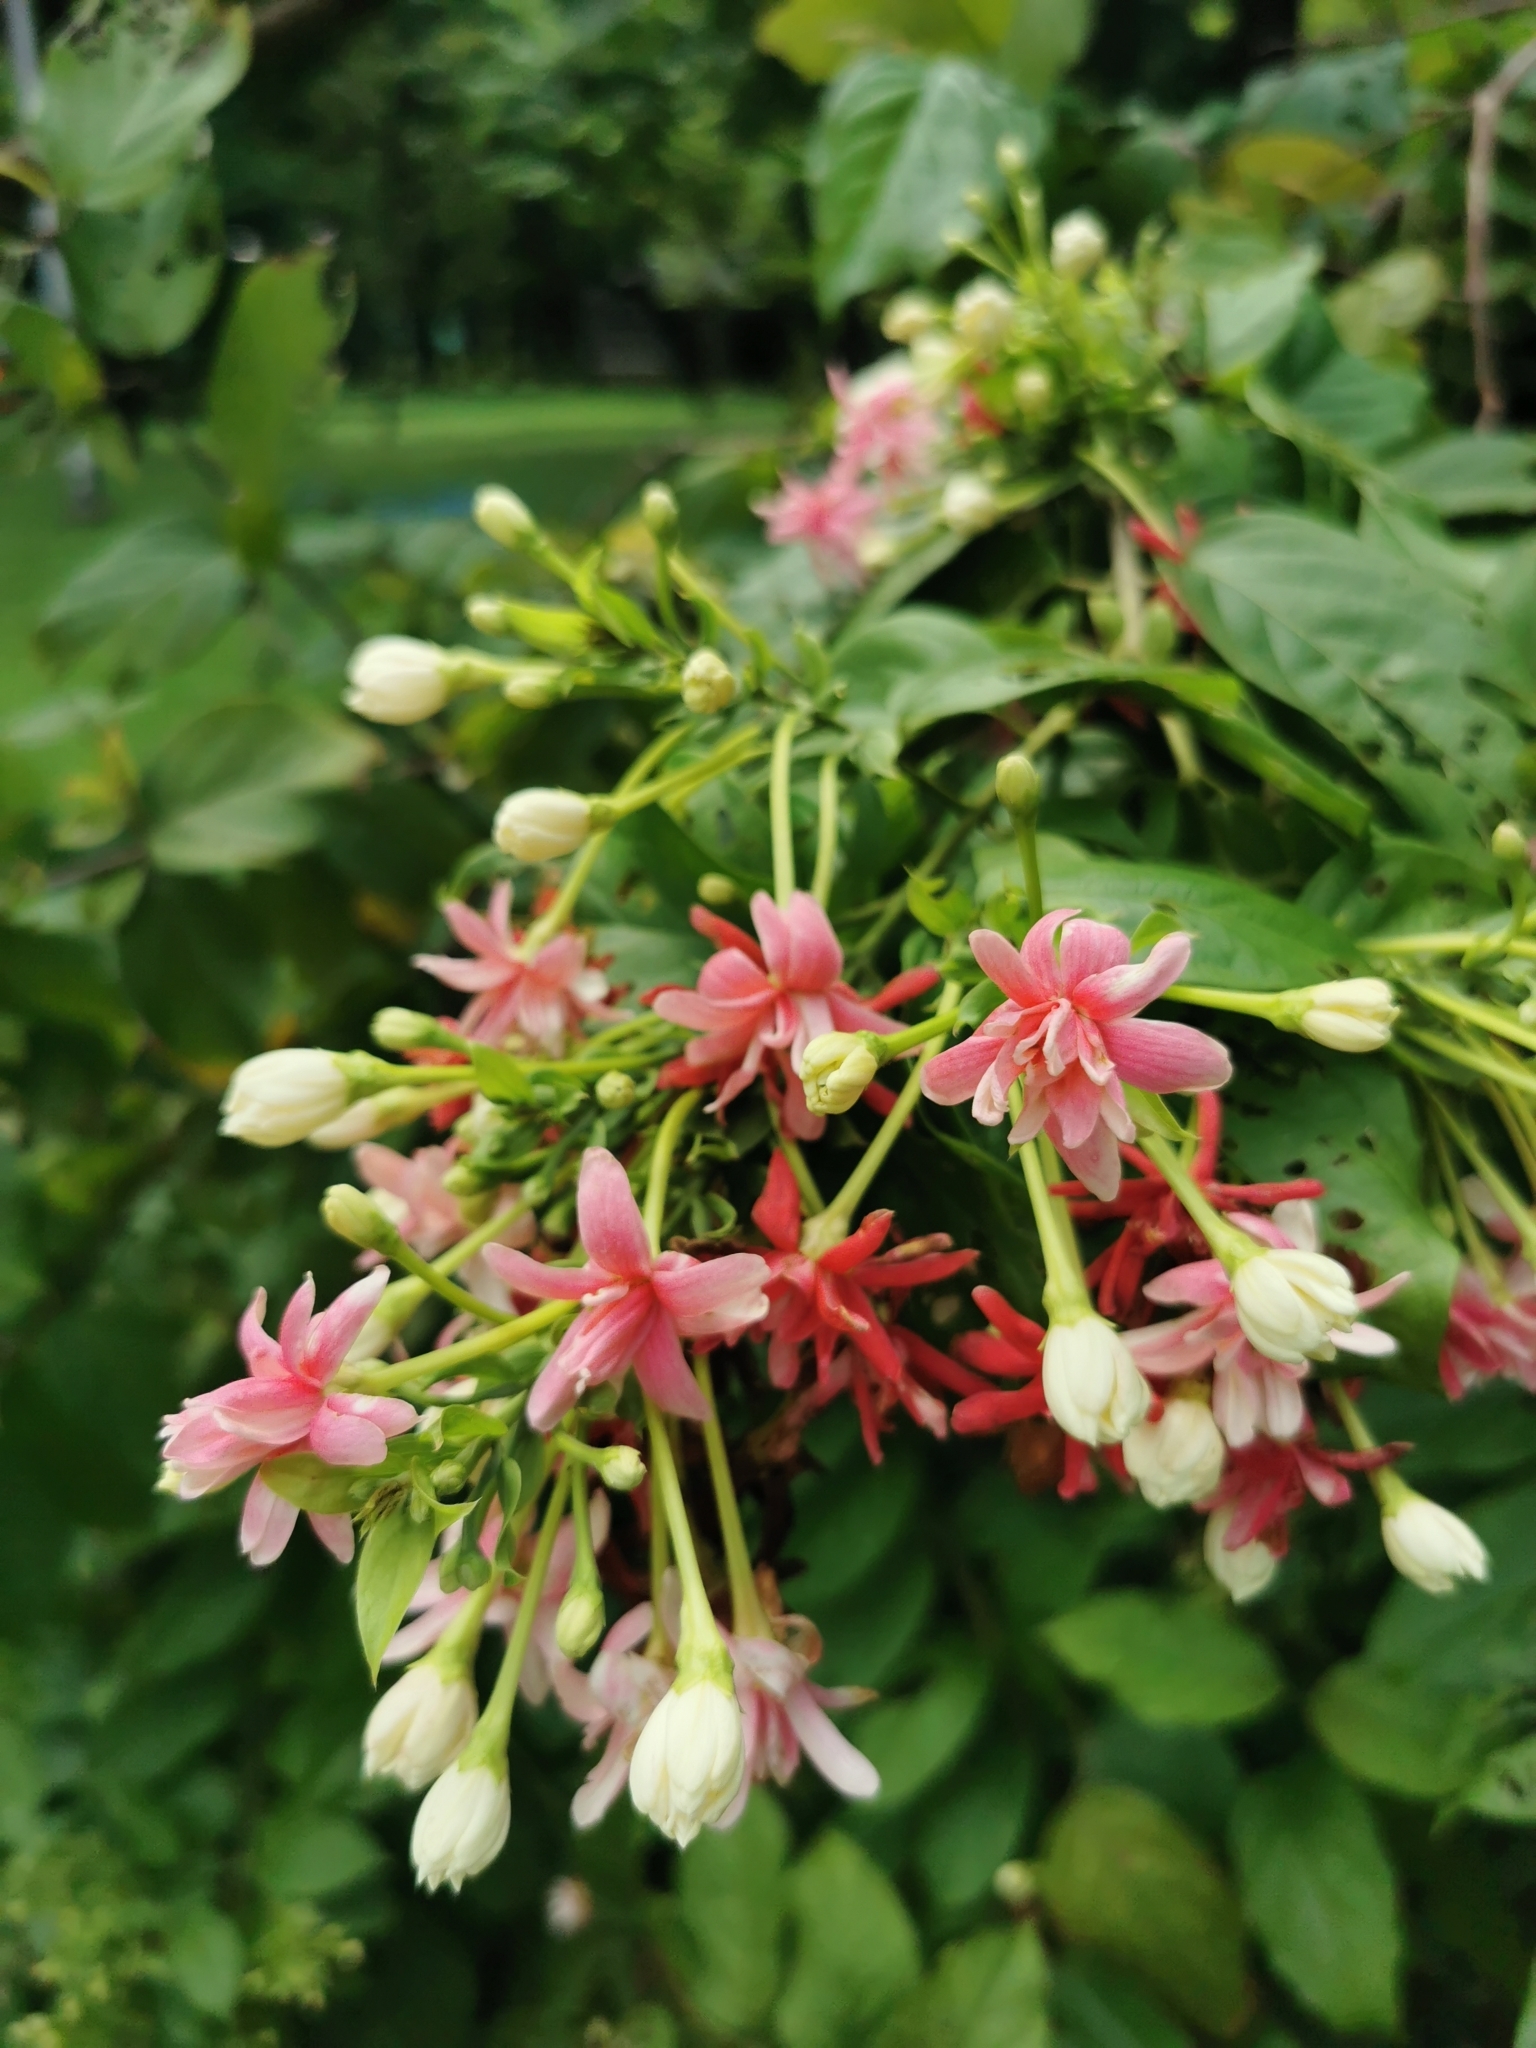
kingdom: Plantae
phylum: Tracheophyta
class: Magnoliopsida
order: Myrtales
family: Combretaceae
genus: Combretum
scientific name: Combretum indicum
